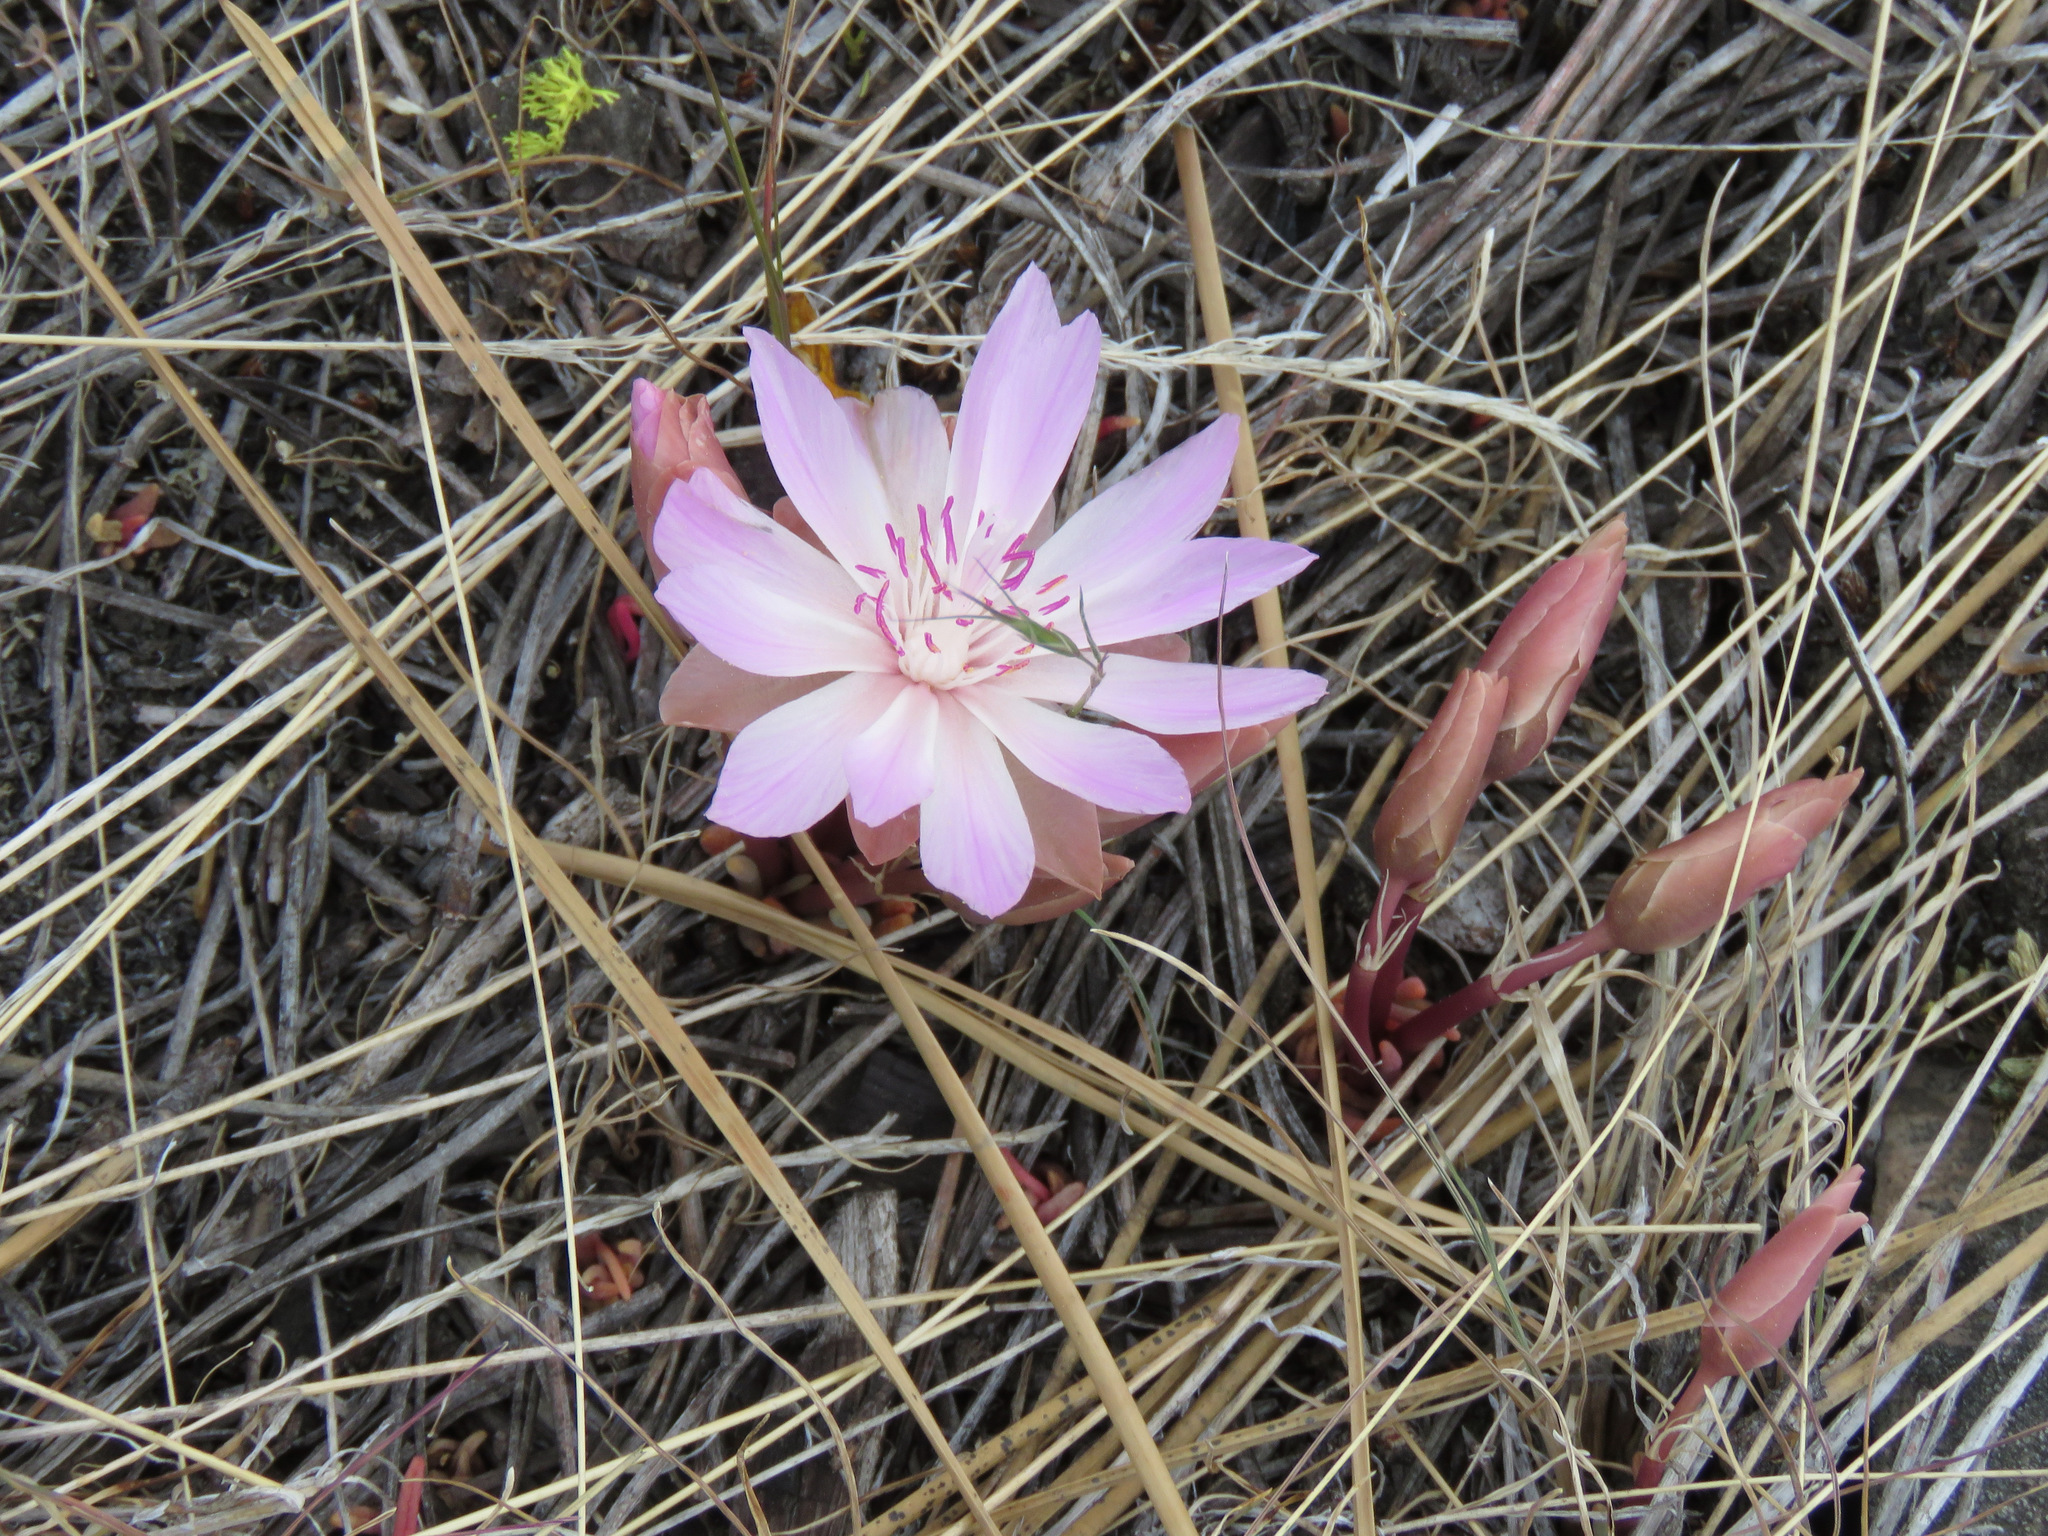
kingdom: Plantae
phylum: Tracheophyta
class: Magnoliopsida
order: Caryophyllales
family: Montiaceae
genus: Lewisia
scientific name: Lewisia rediviva
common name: Bitter-root
